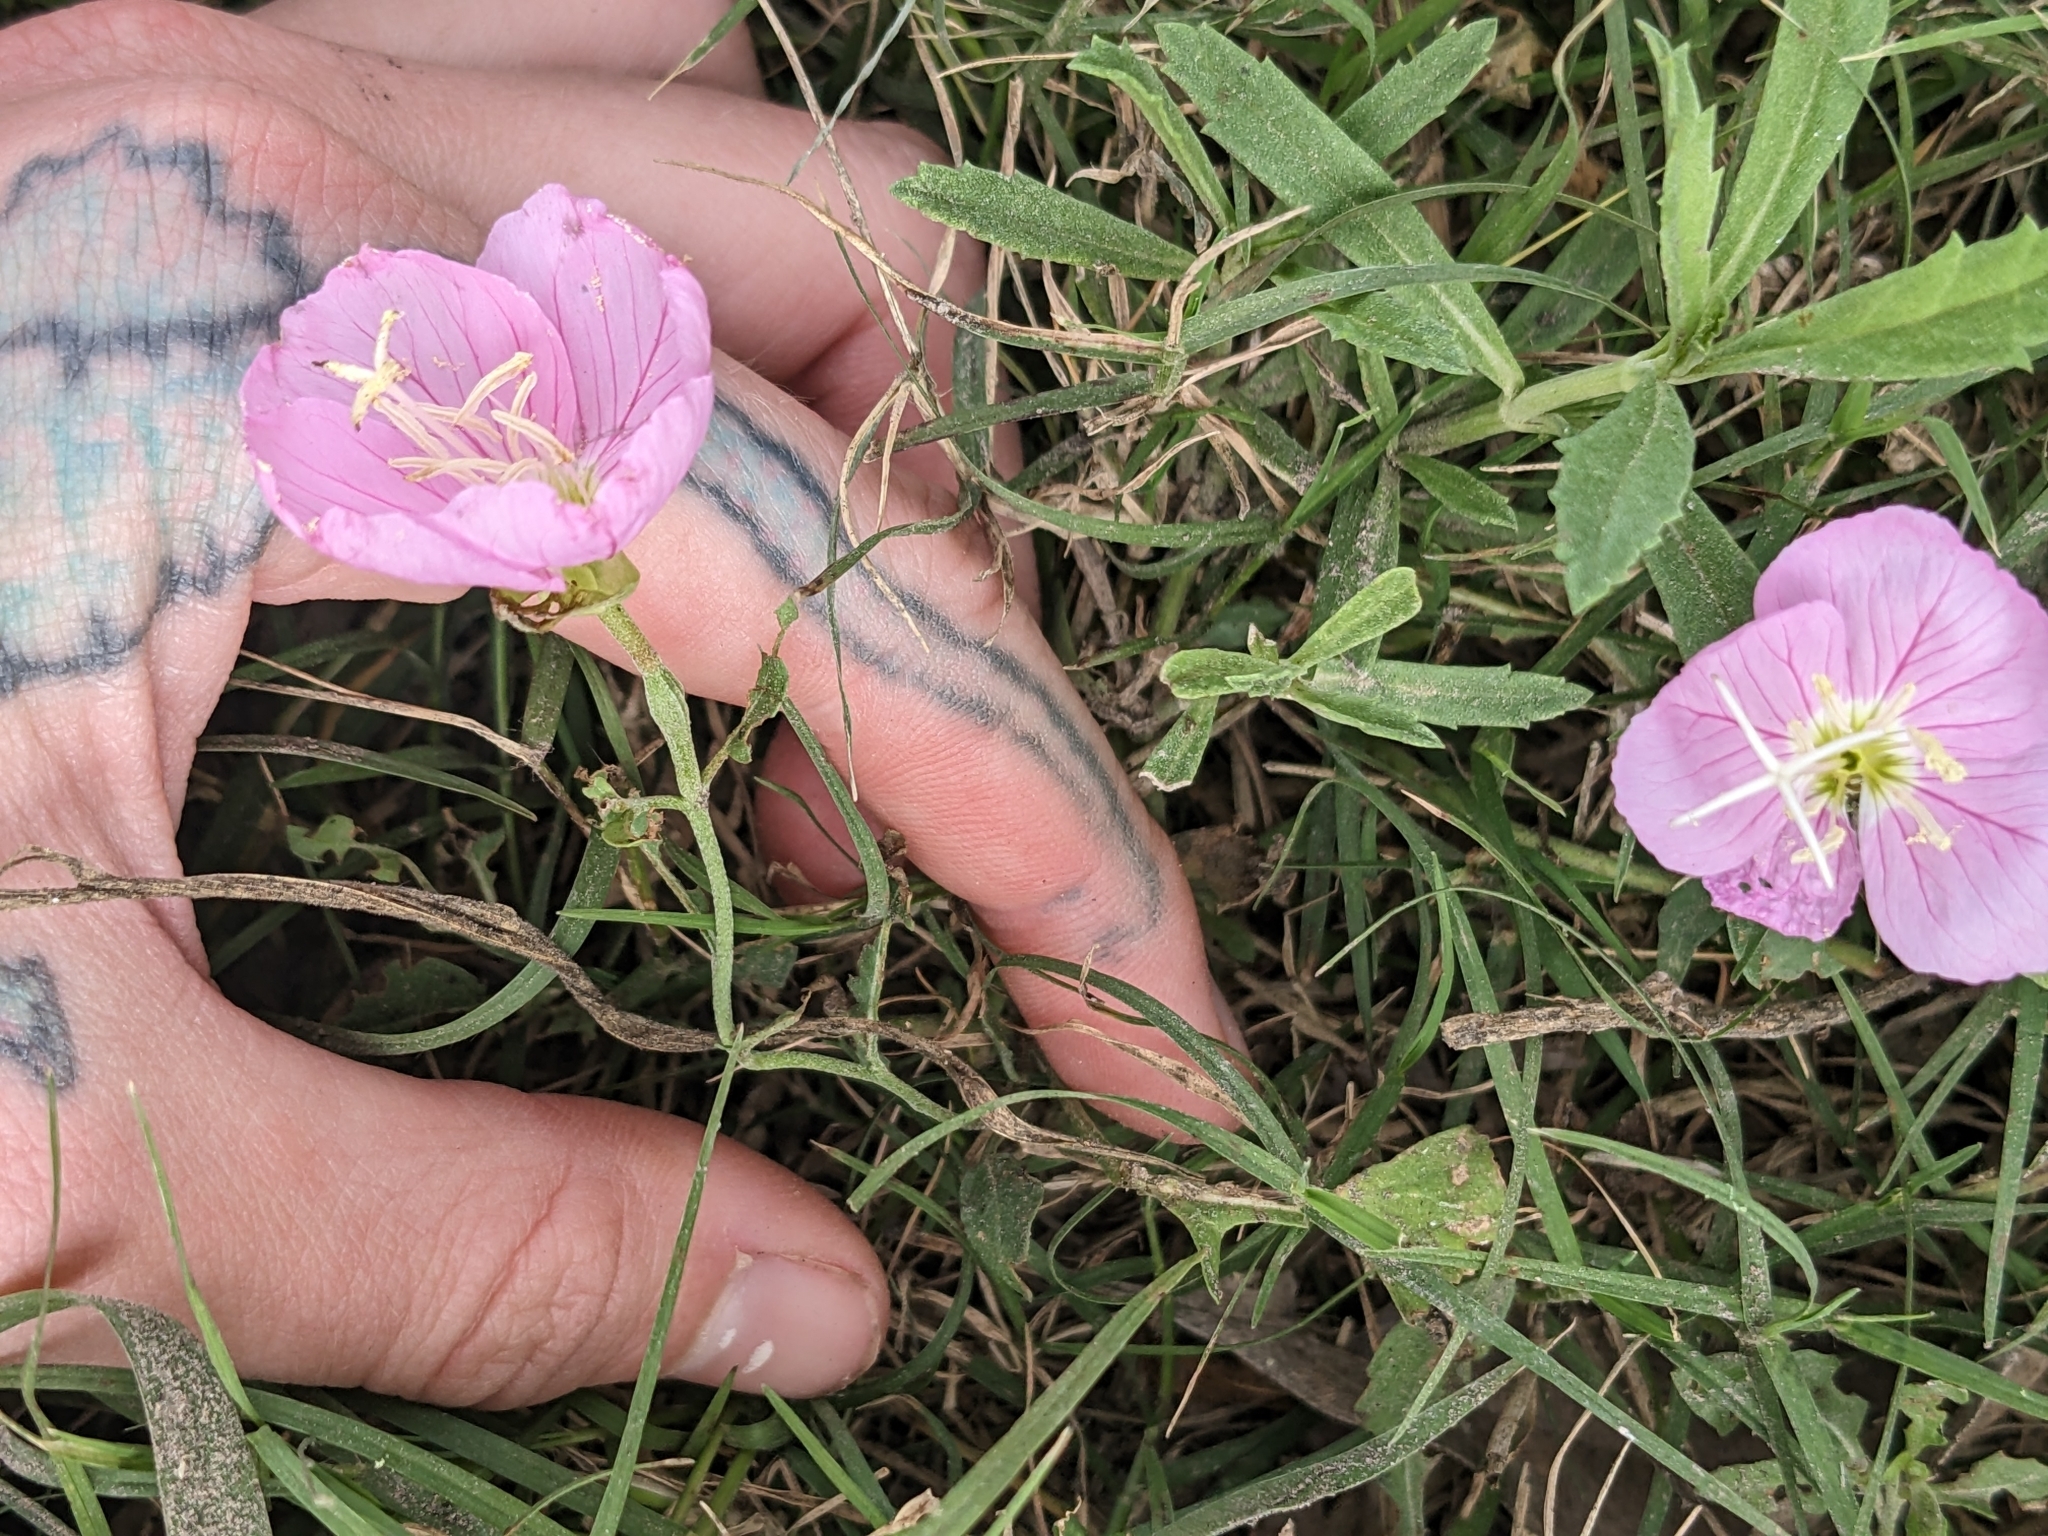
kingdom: Plantae
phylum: Tracheophyta
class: Magnoliopsida
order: Myrtales
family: Onagraceae
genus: Oenothera
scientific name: Oenothera speciosa
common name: White evening-primrose
